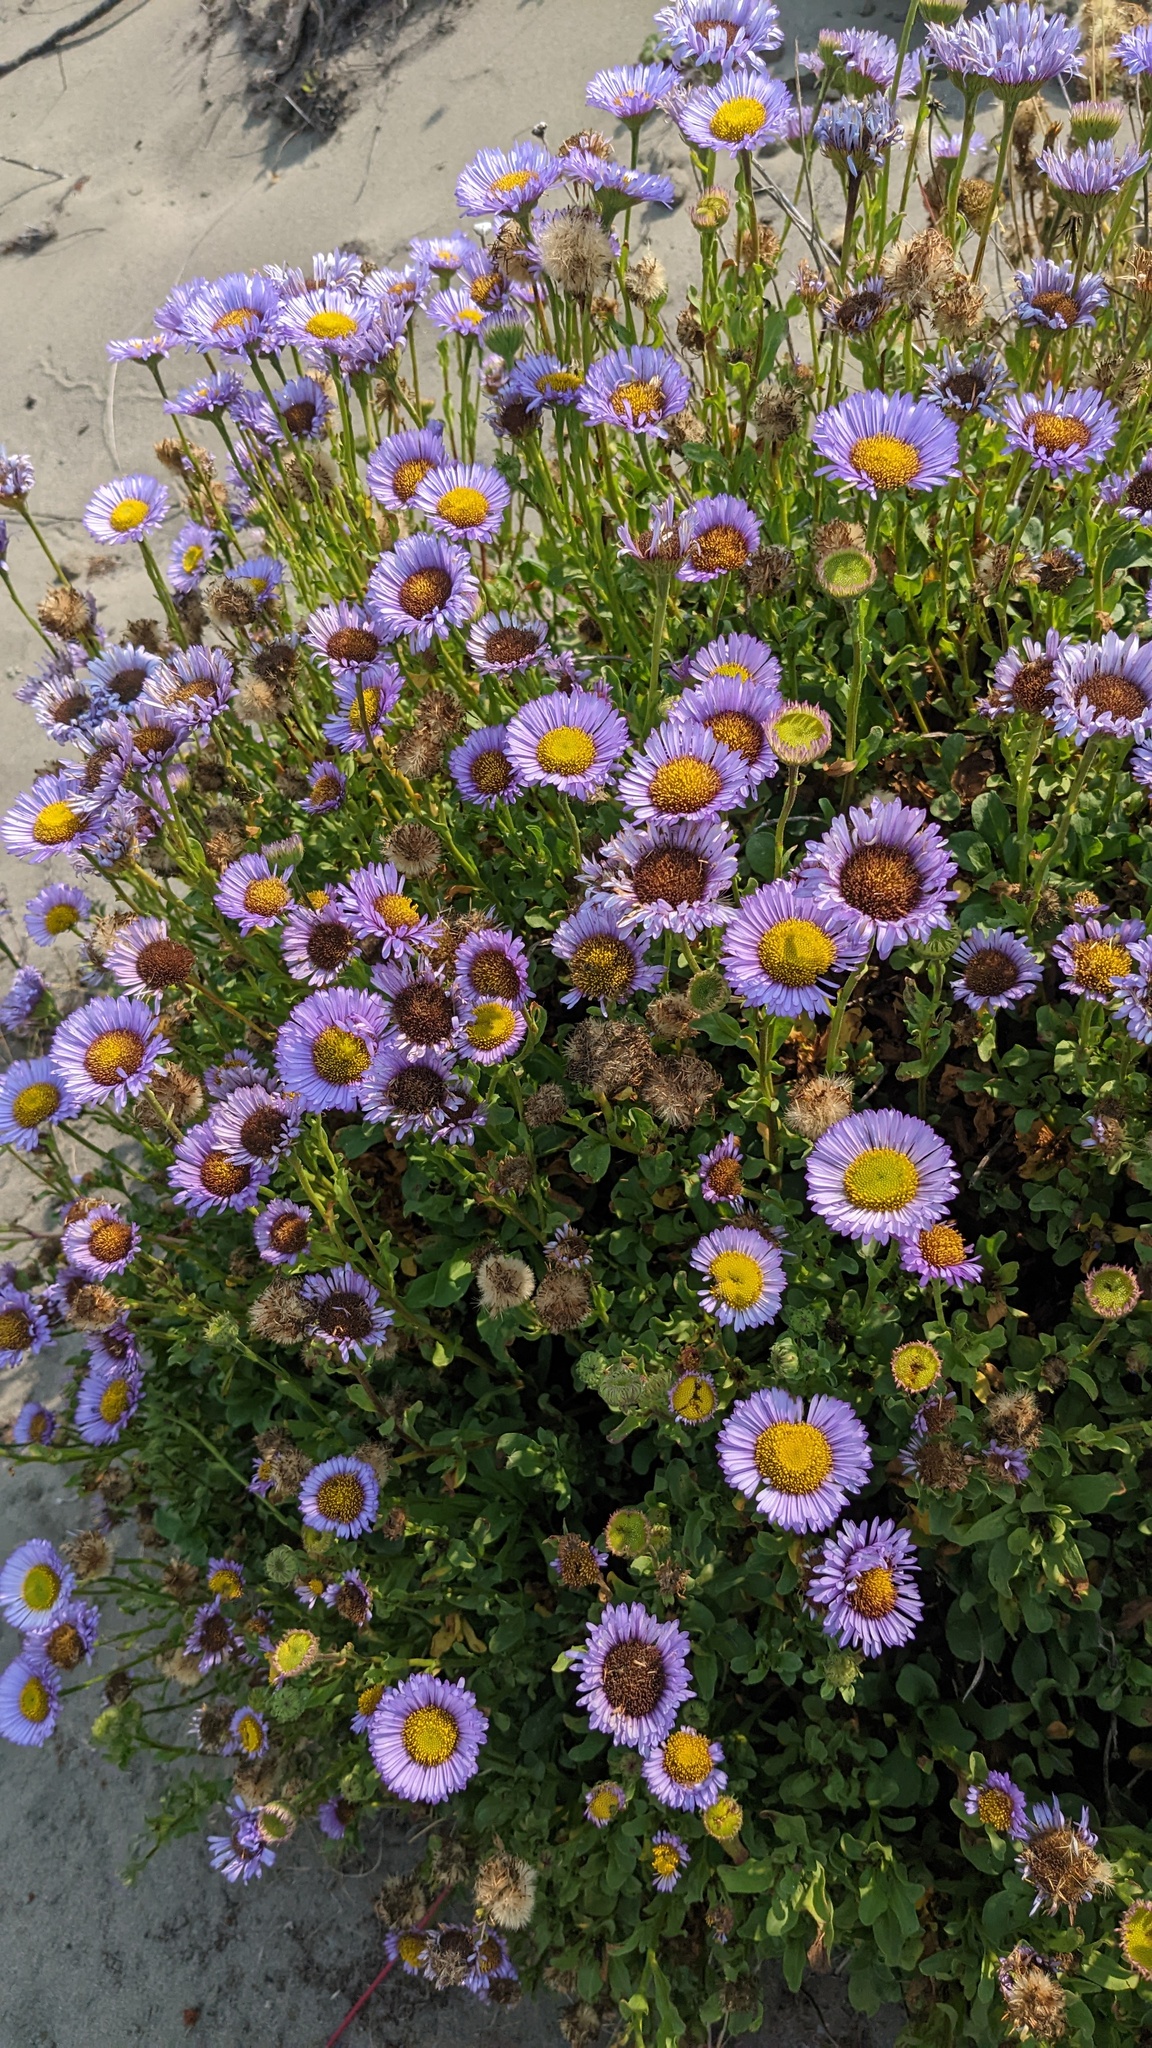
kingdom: Plantae
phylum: Tracheophyta
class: Magnoliopsida
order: Asterales
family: Asteraceae
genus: Erigeron
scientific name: Erigeron glaucus
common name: Seaside daisy
